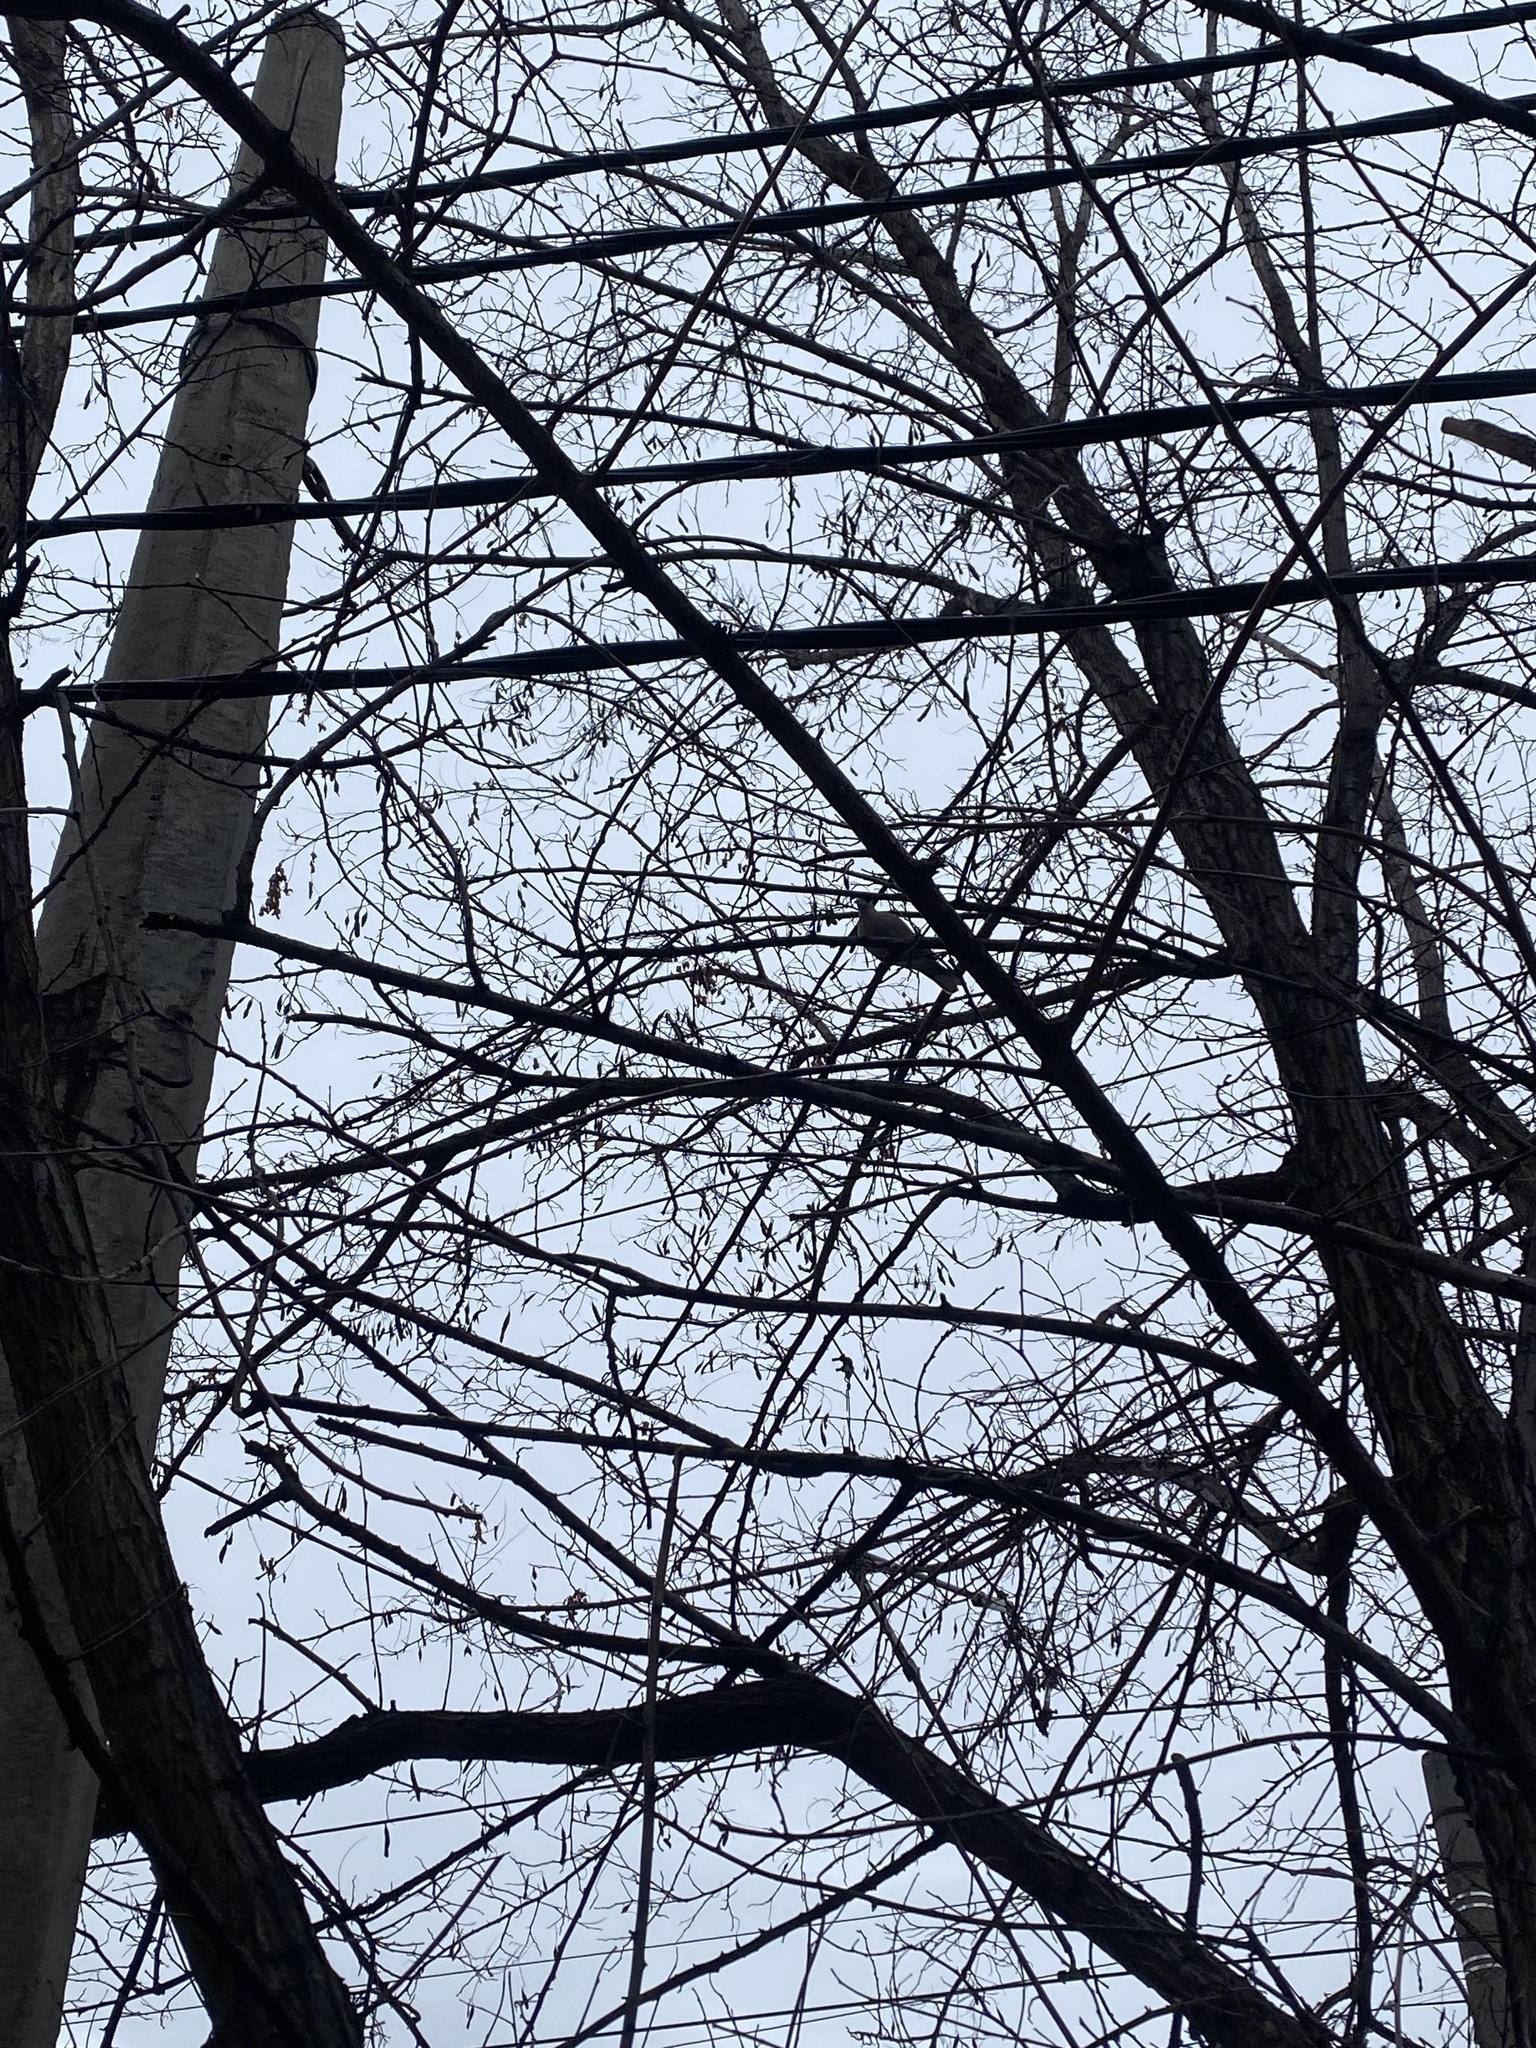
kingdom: Animalia
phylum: Chordata
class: Aves
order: Columbiformes
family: Columbidae
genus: Streptopelia
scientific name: Streptopelia decaocto
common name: Eurasian collared dove
